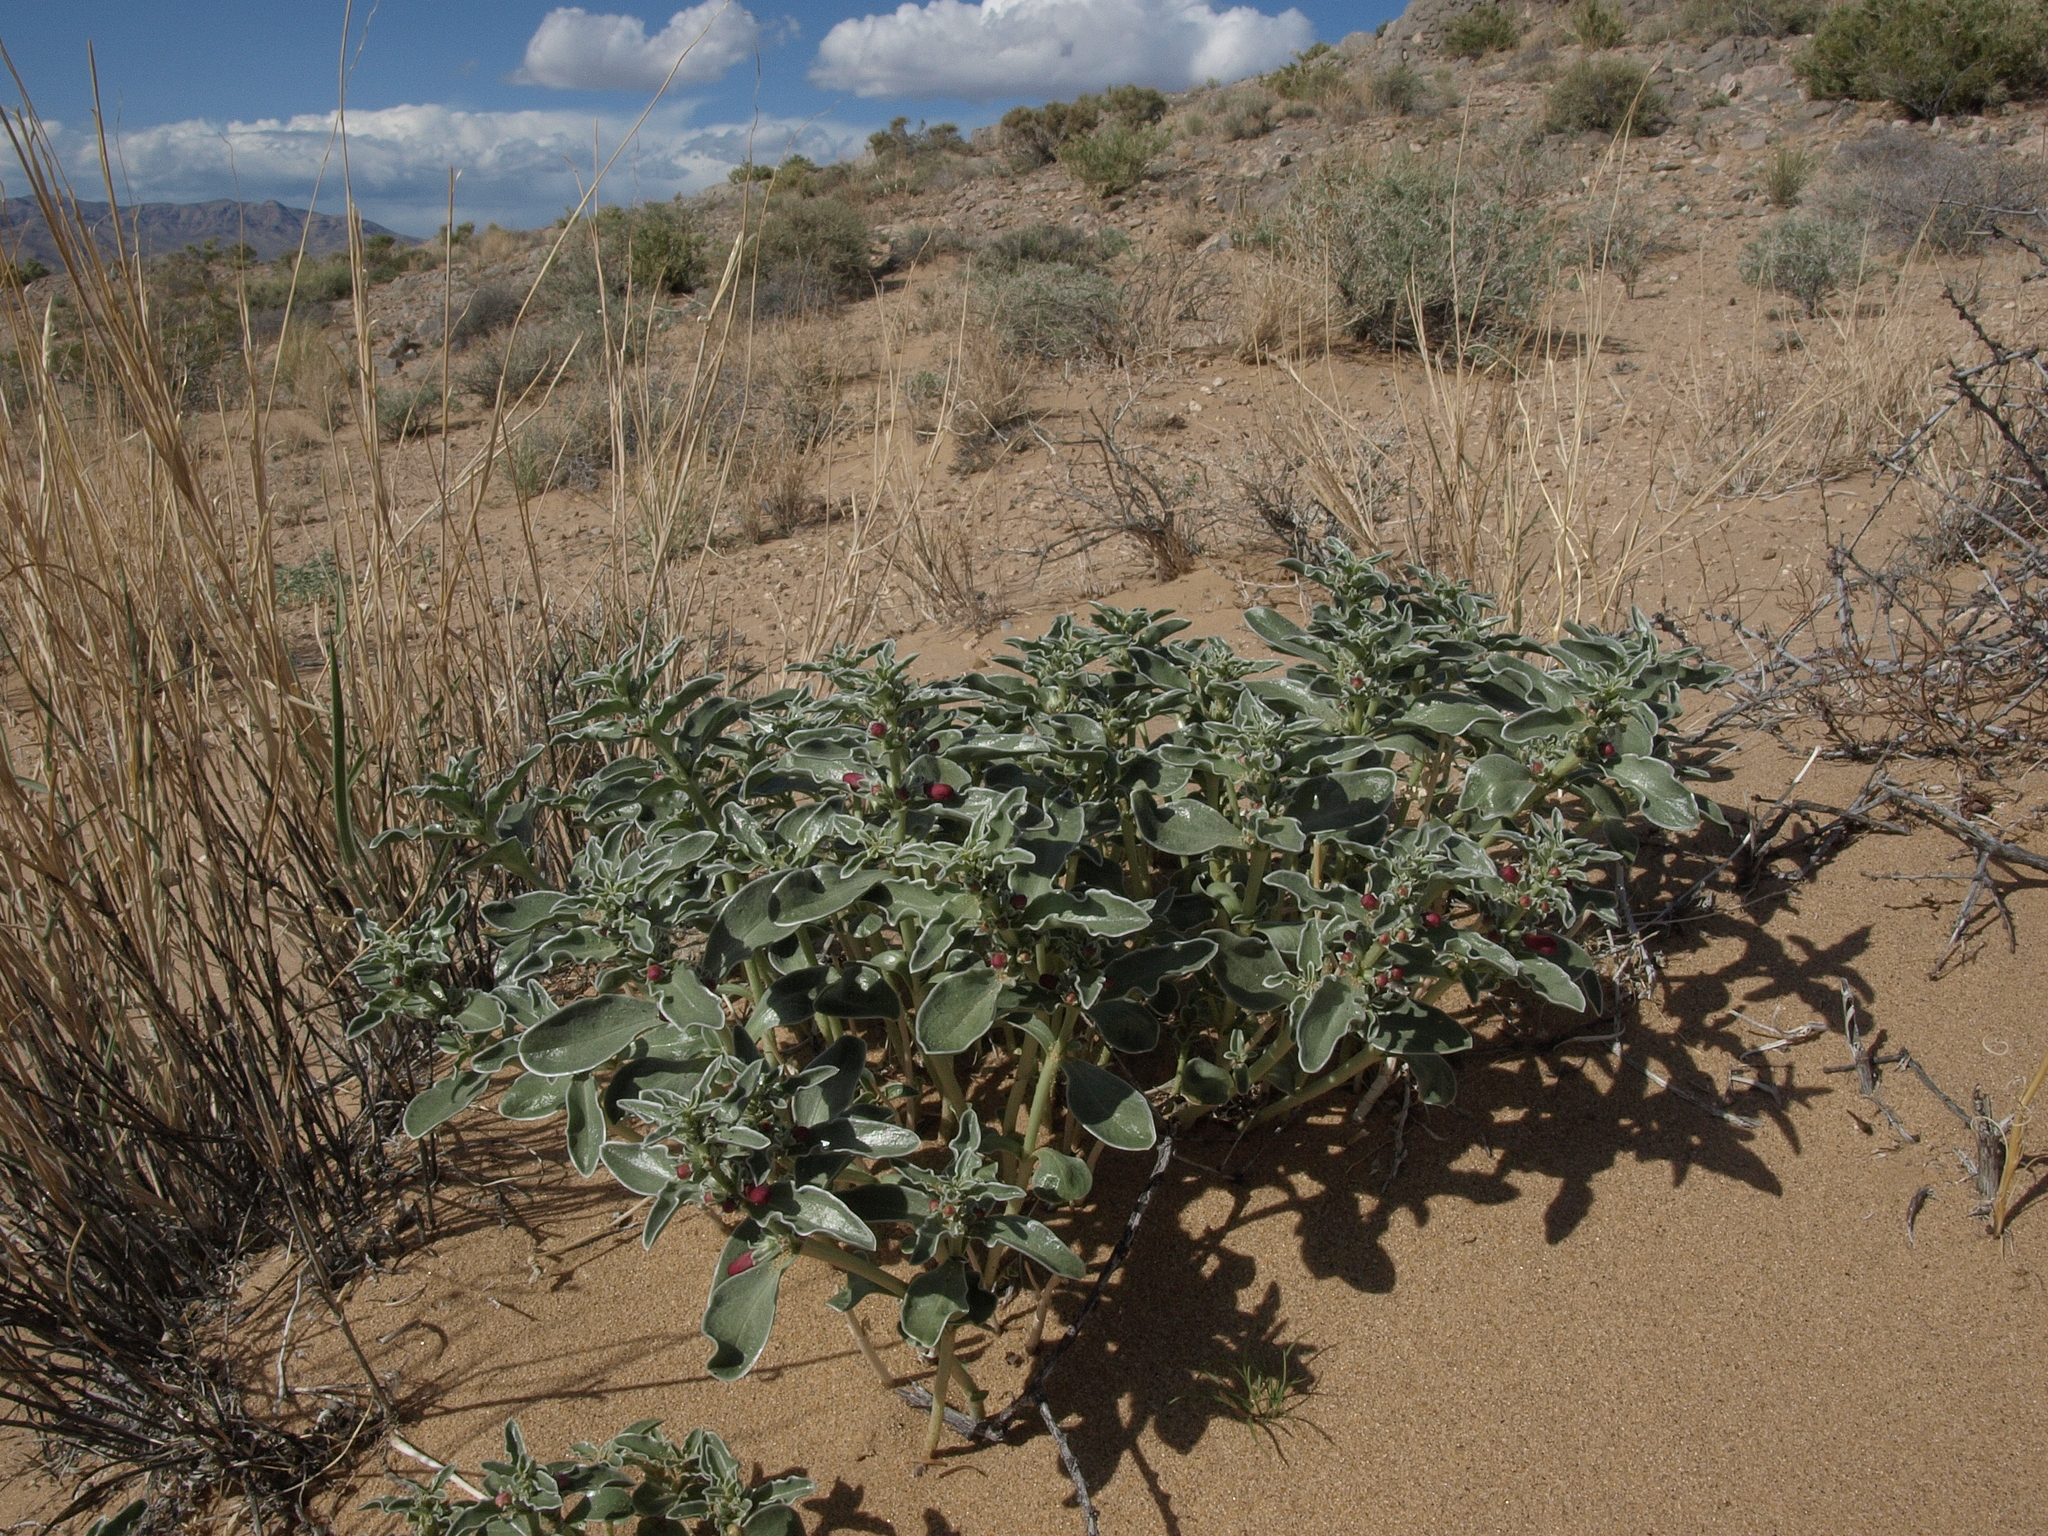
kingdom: Plantae
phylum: Tracheophyta
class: Magnoliopsida
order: Lamiales
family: Plantaginaceae
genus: Penstemon
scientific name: Penstemon albomarginatus
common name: White-margin beardtongue
